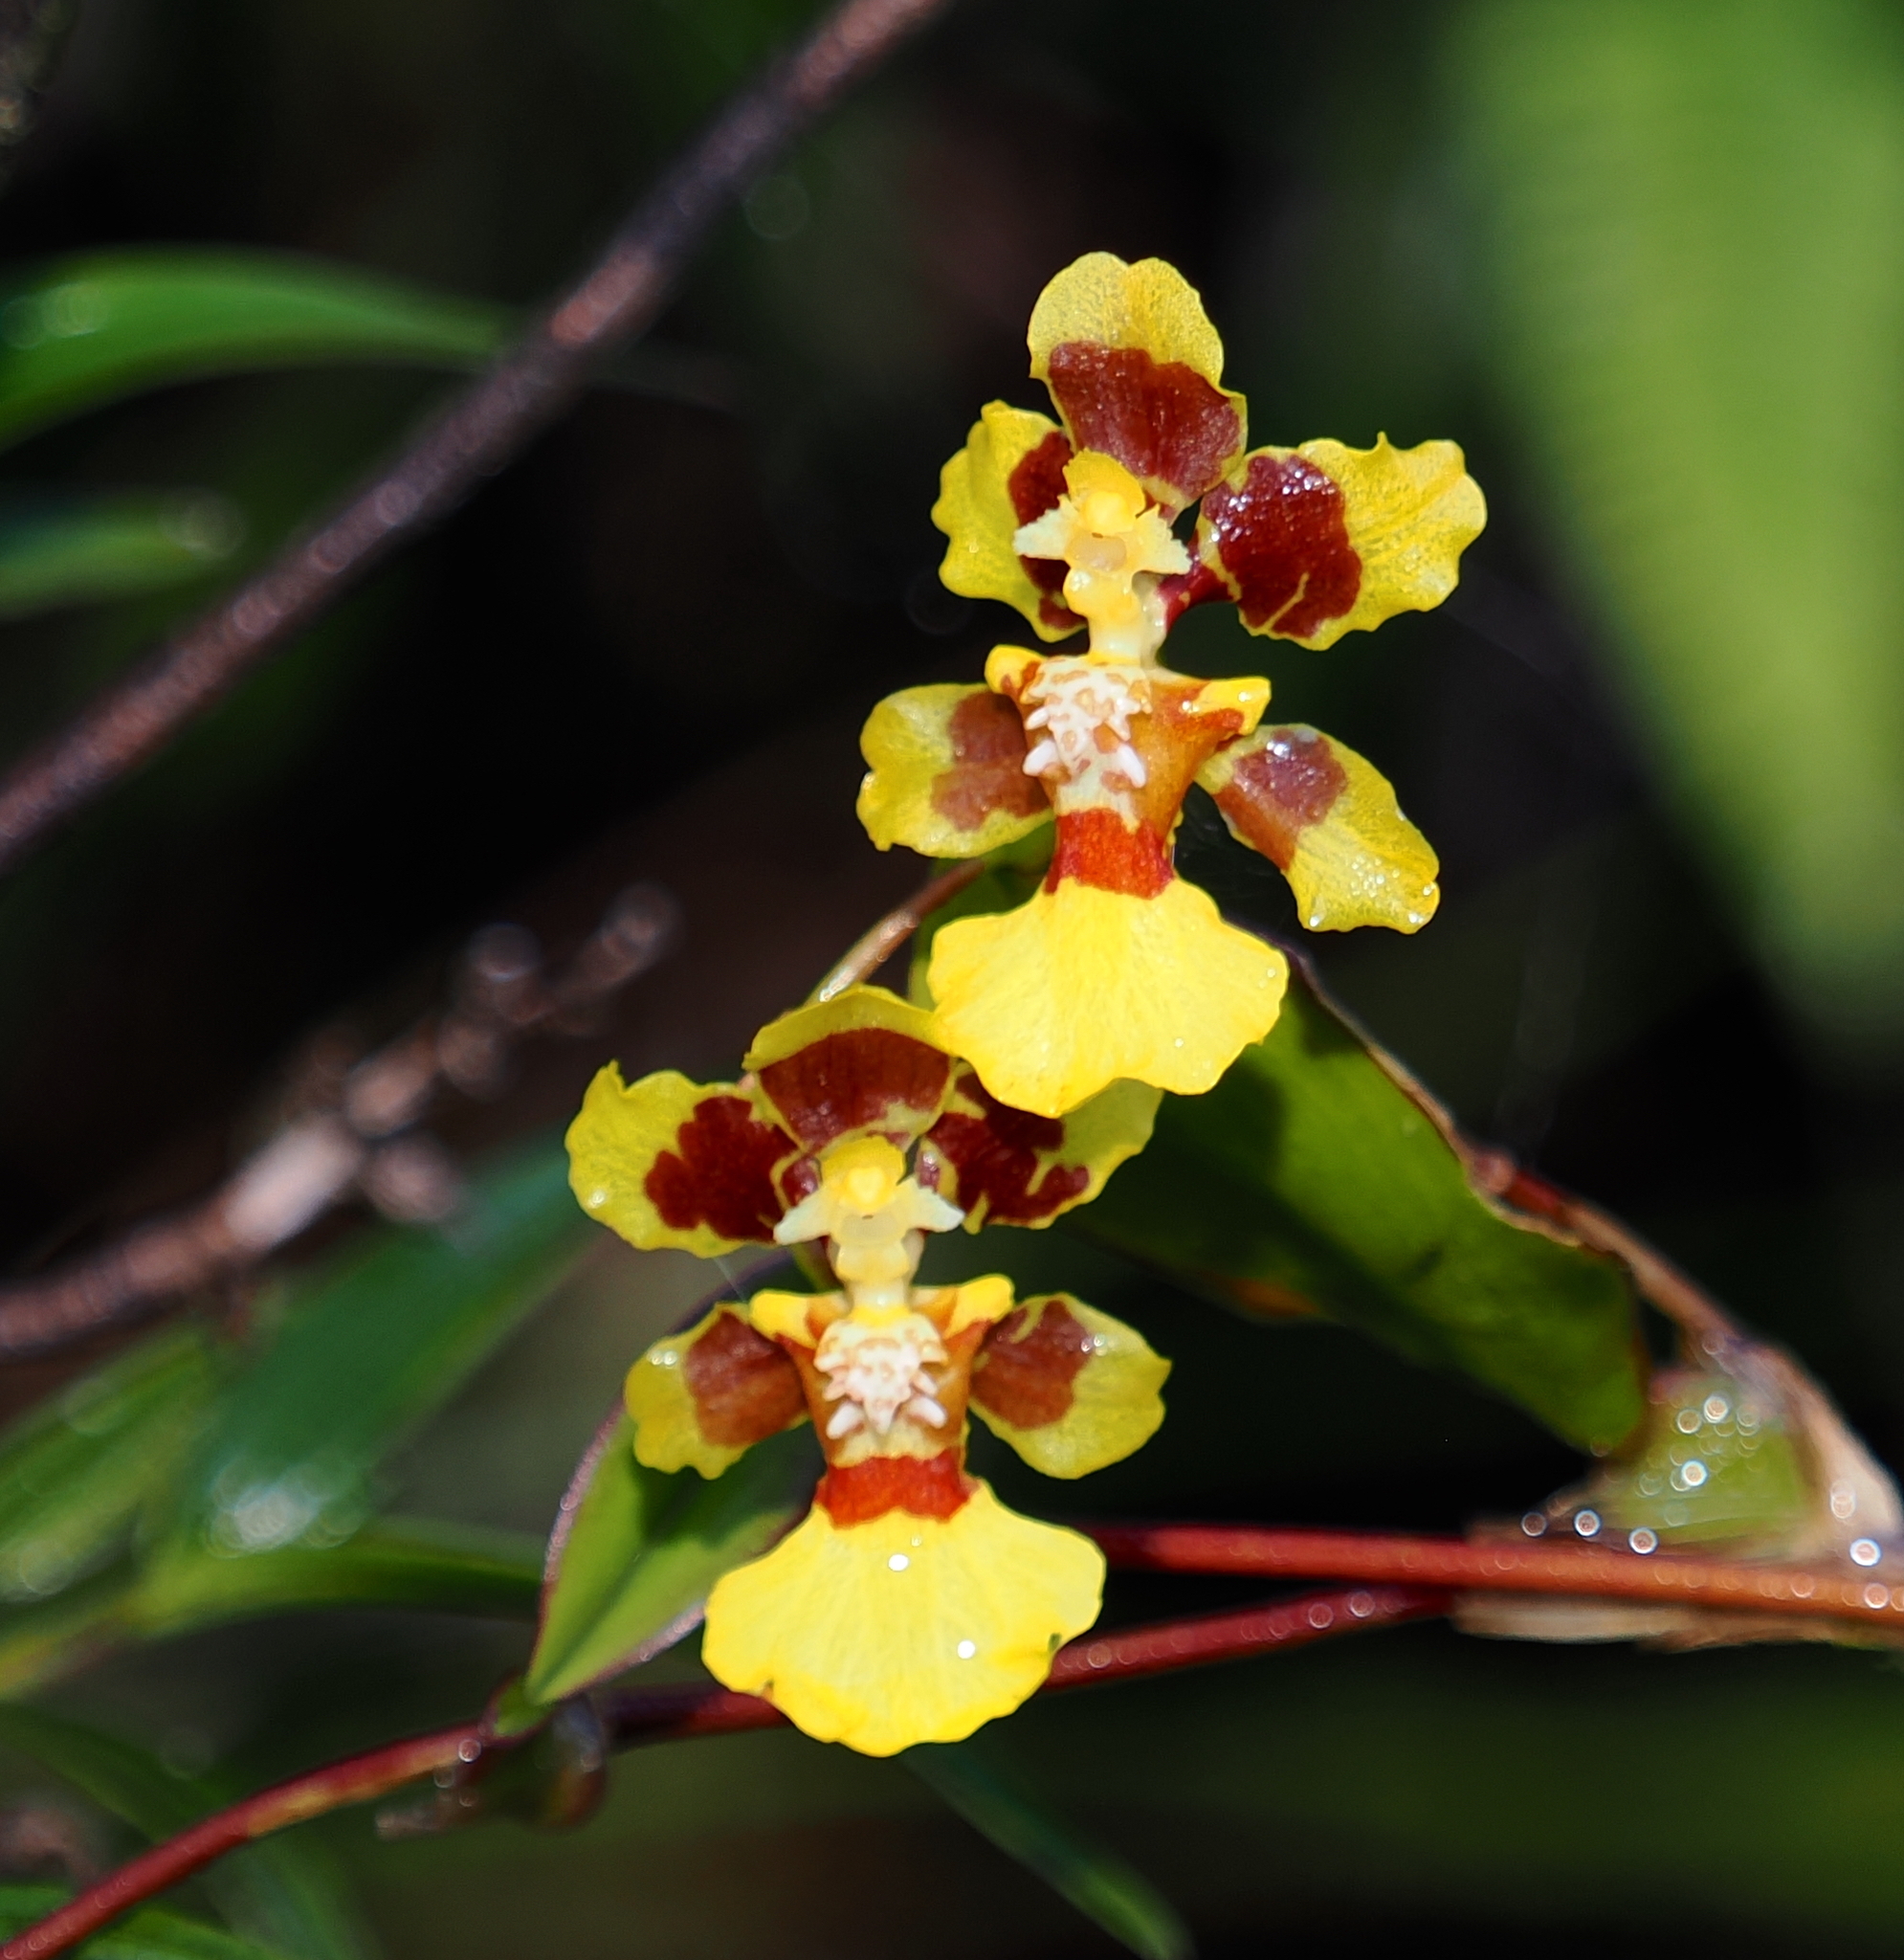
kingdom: Plantae
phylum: Tracheophyta
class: Liliopsida
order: Asparagales
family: Orchidaceae
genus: Otoglossum
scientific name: Otoglossum serpens
